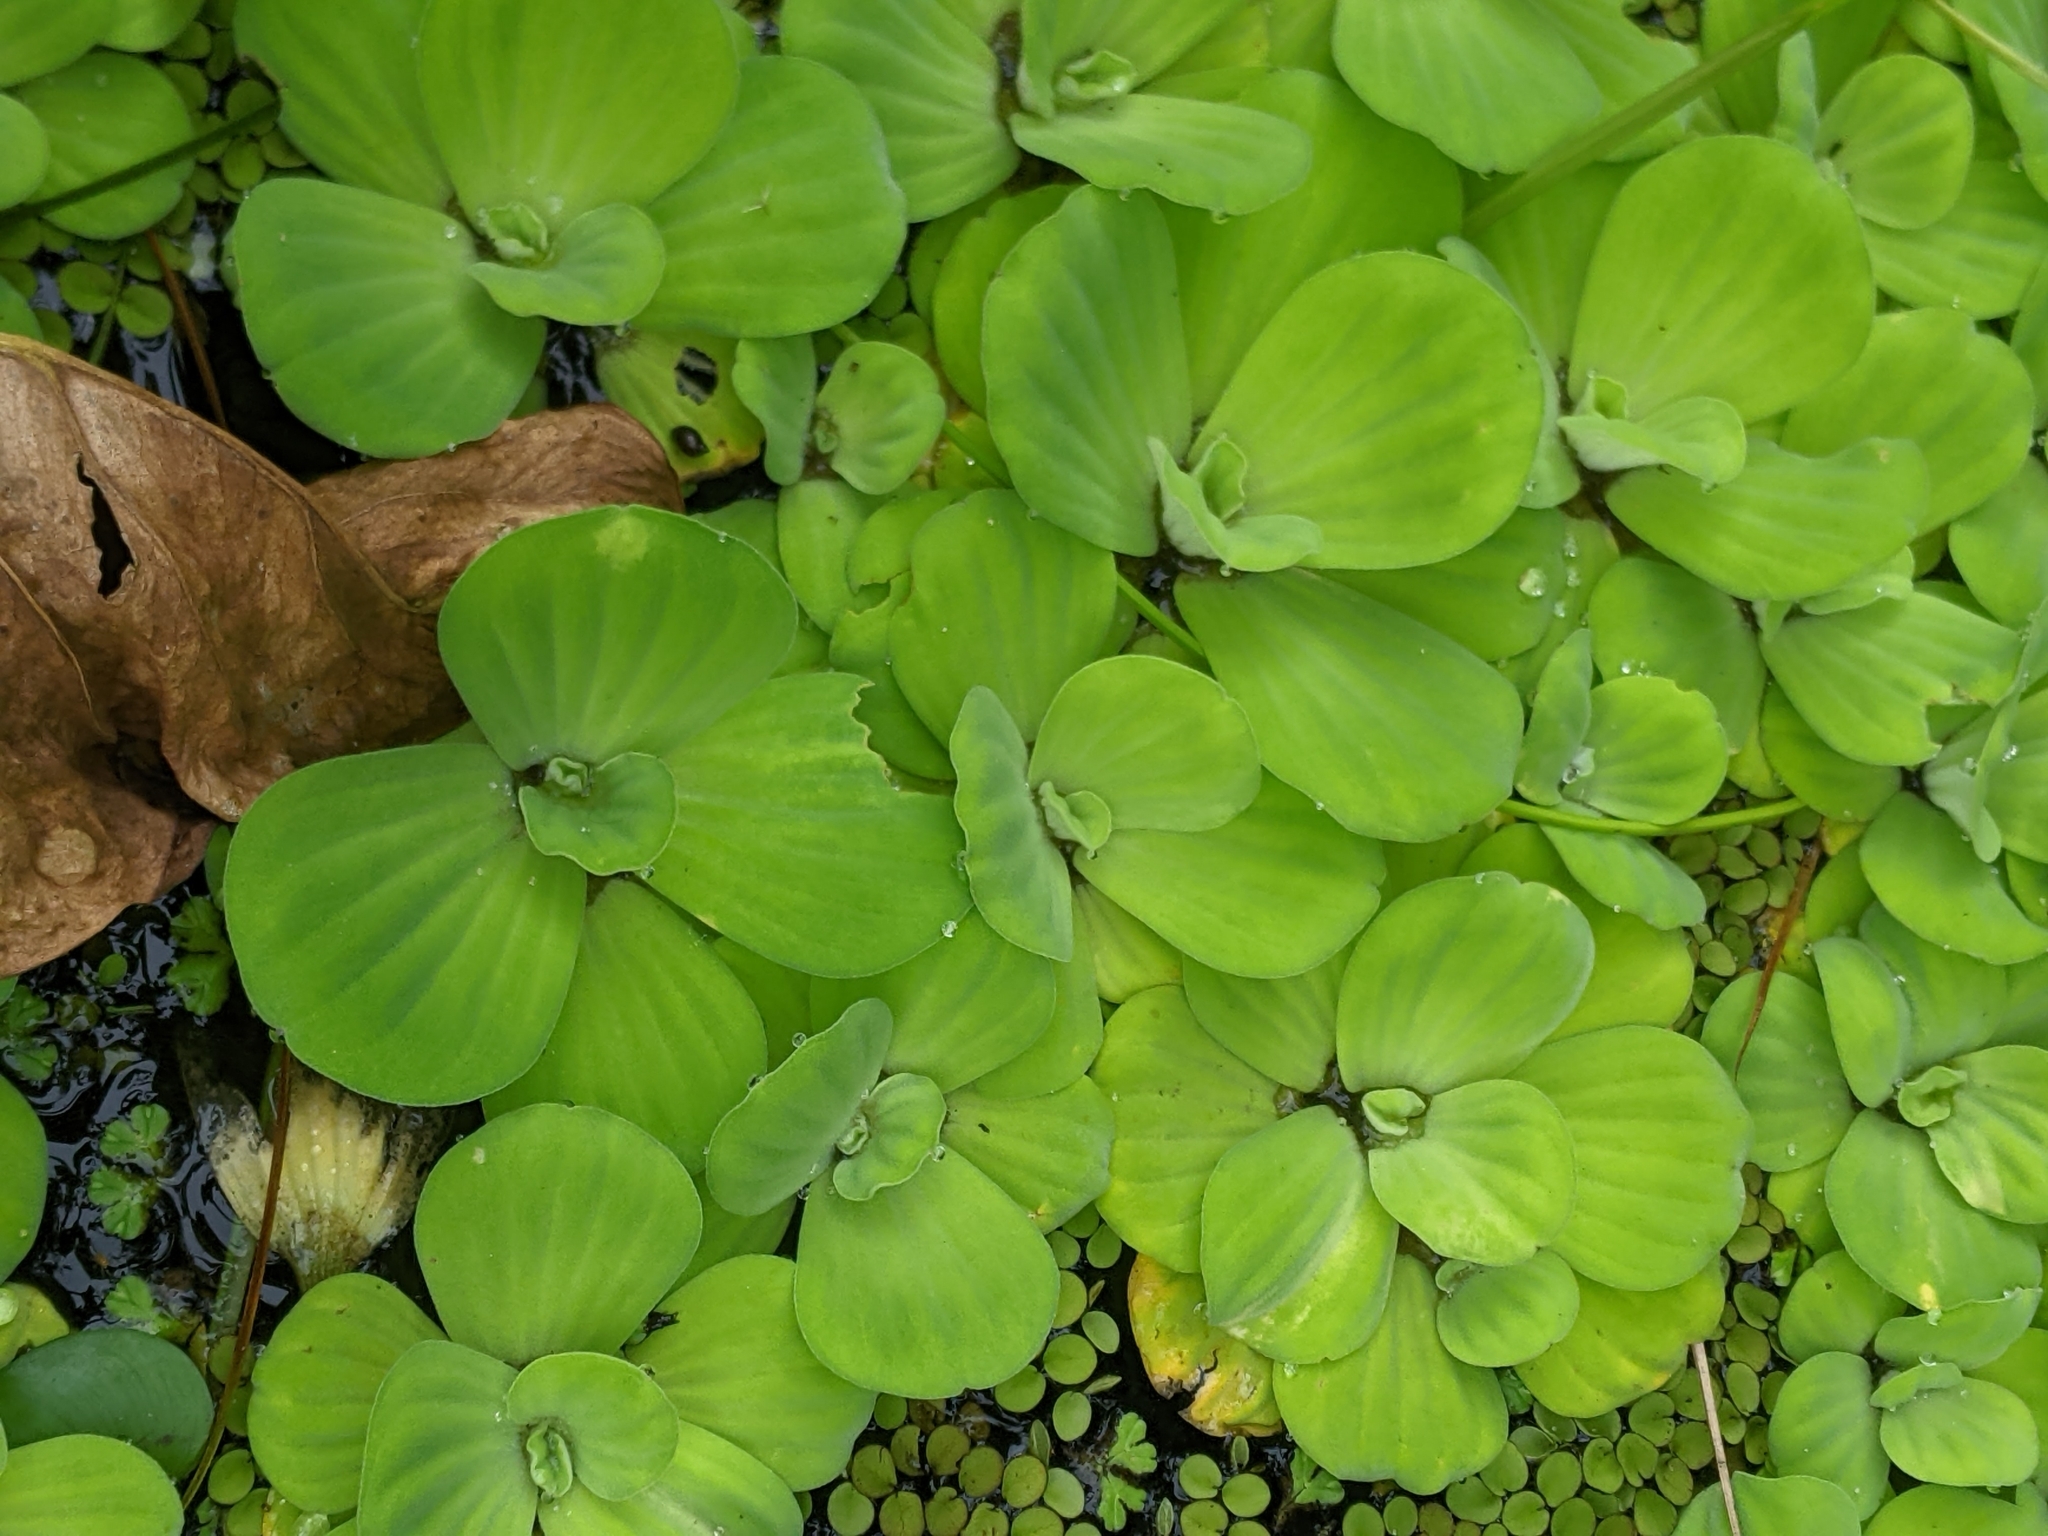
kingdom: Plantae
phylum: Tracheophyta
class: Liliopsida
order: Alismatales
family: Araceae
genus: Pistia
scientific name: Pistia stratiotes
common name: Water lettuce
